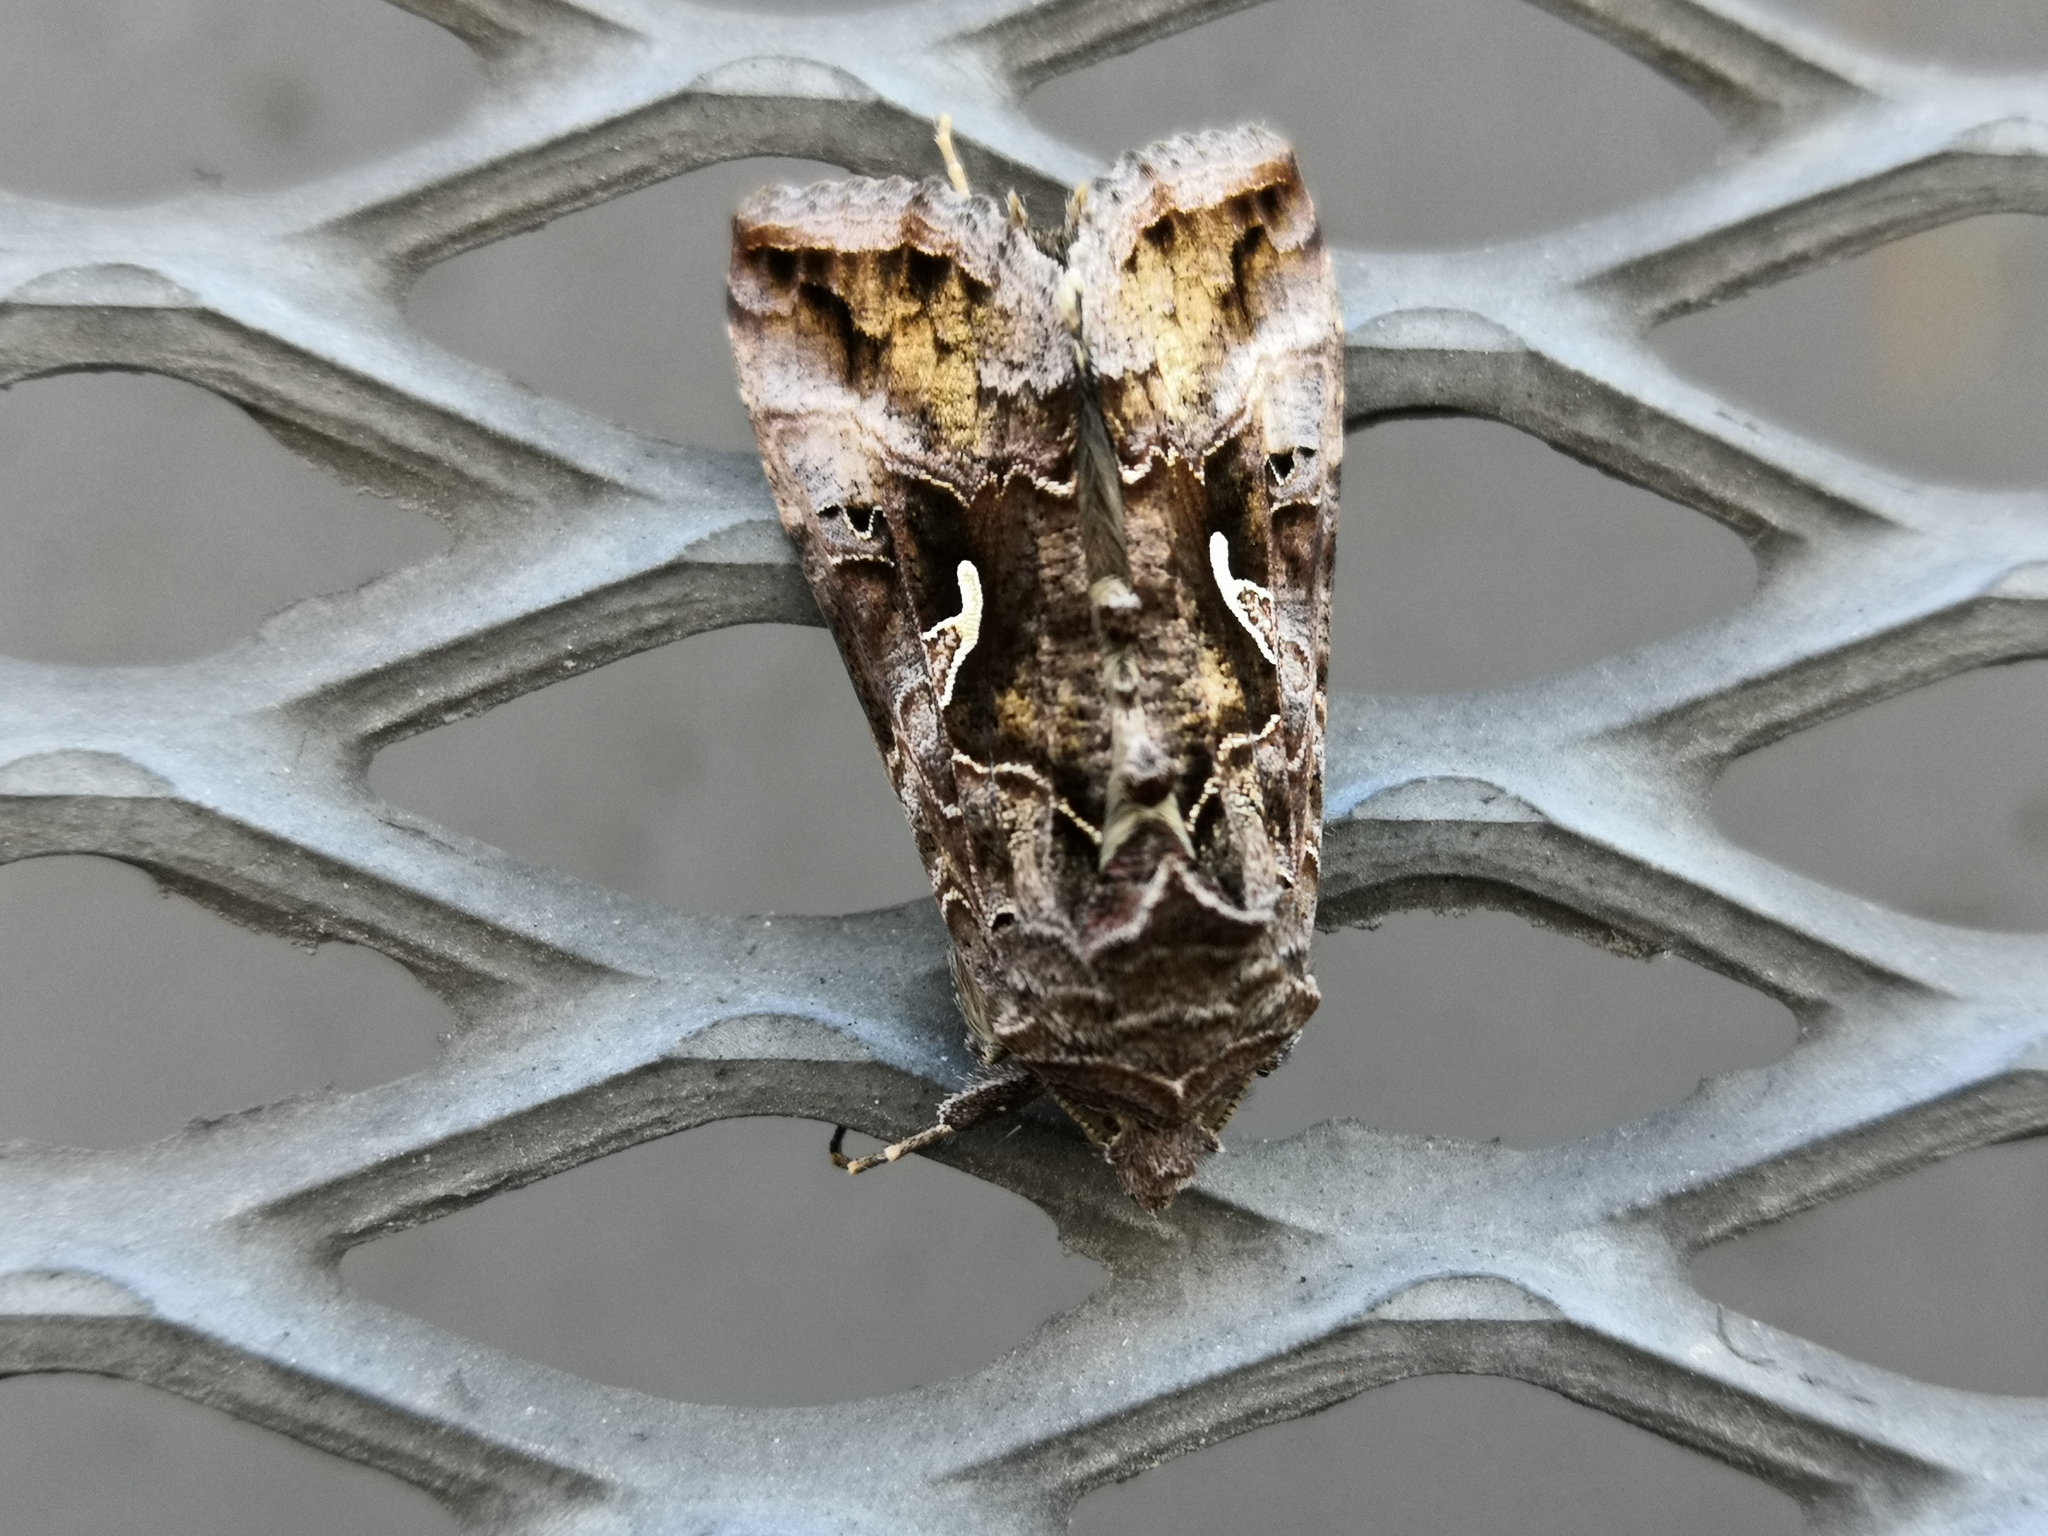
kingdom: Animalia
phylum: Arthropoda
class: Insecta
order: Lepidoptera
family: Noctuidae
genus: Autographa
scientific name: Autographa gamma
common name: Silver y
